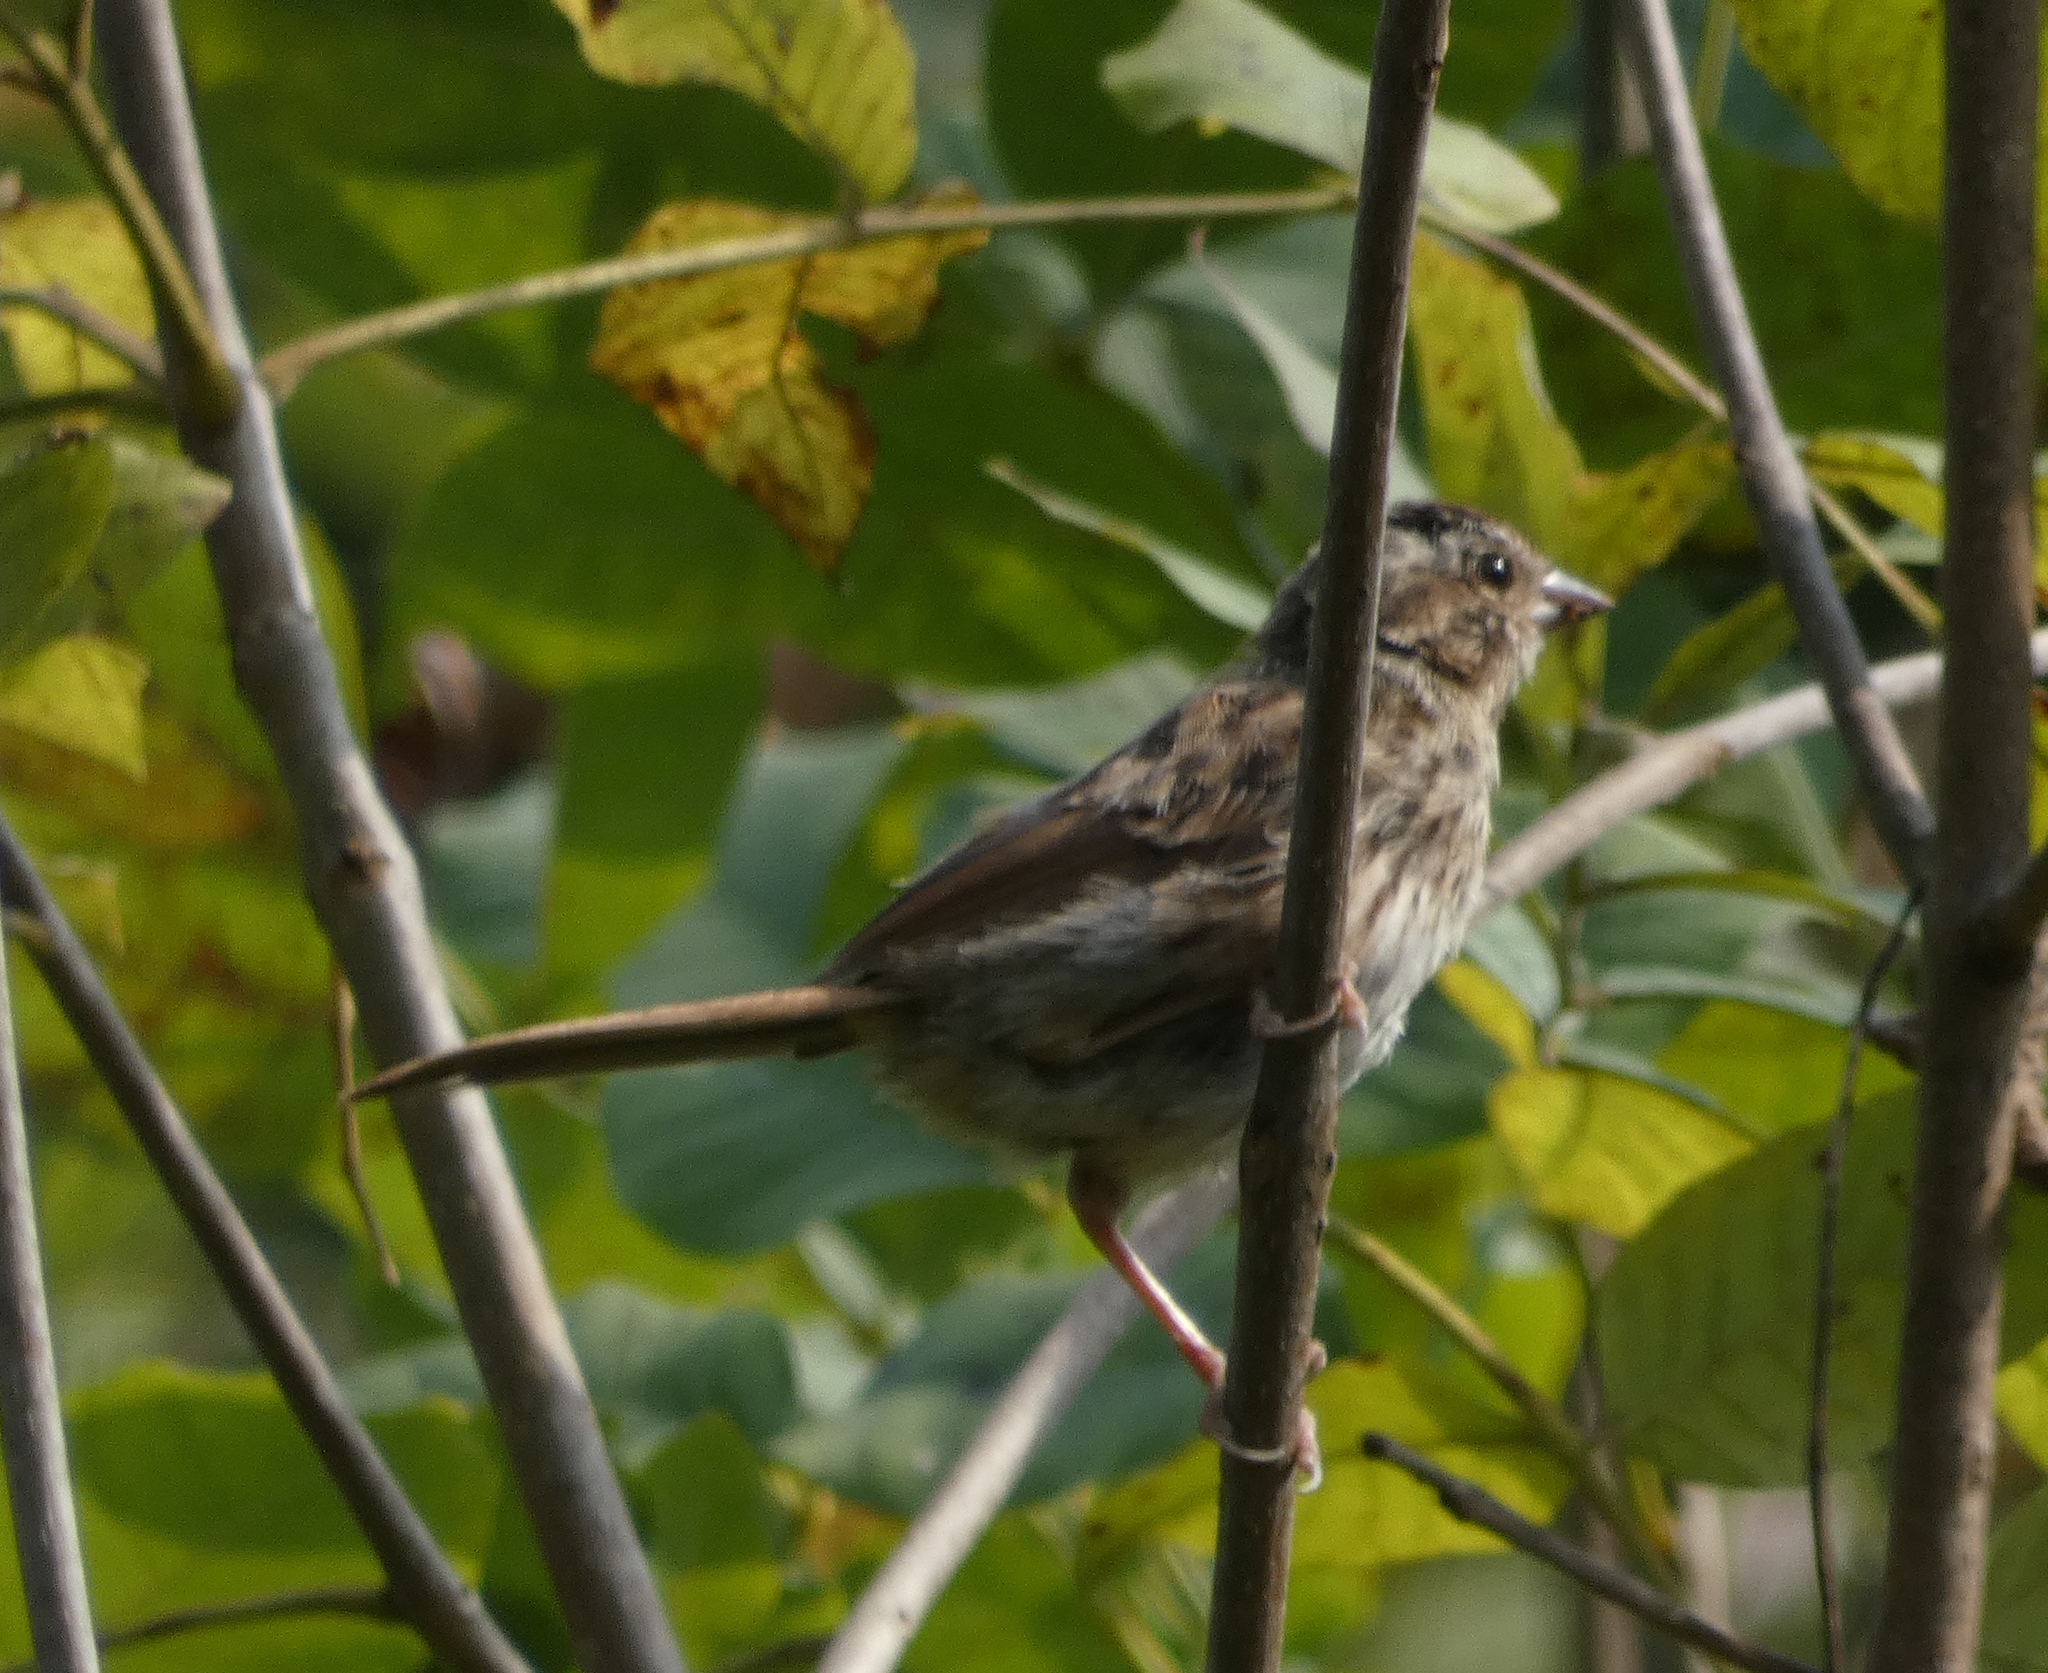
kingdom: Animalia
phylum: Chordata
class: Aves
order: Passeriformes
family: Passerellidae
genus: Melospiza
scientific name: Melospiza melodia
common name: Song sparrow
